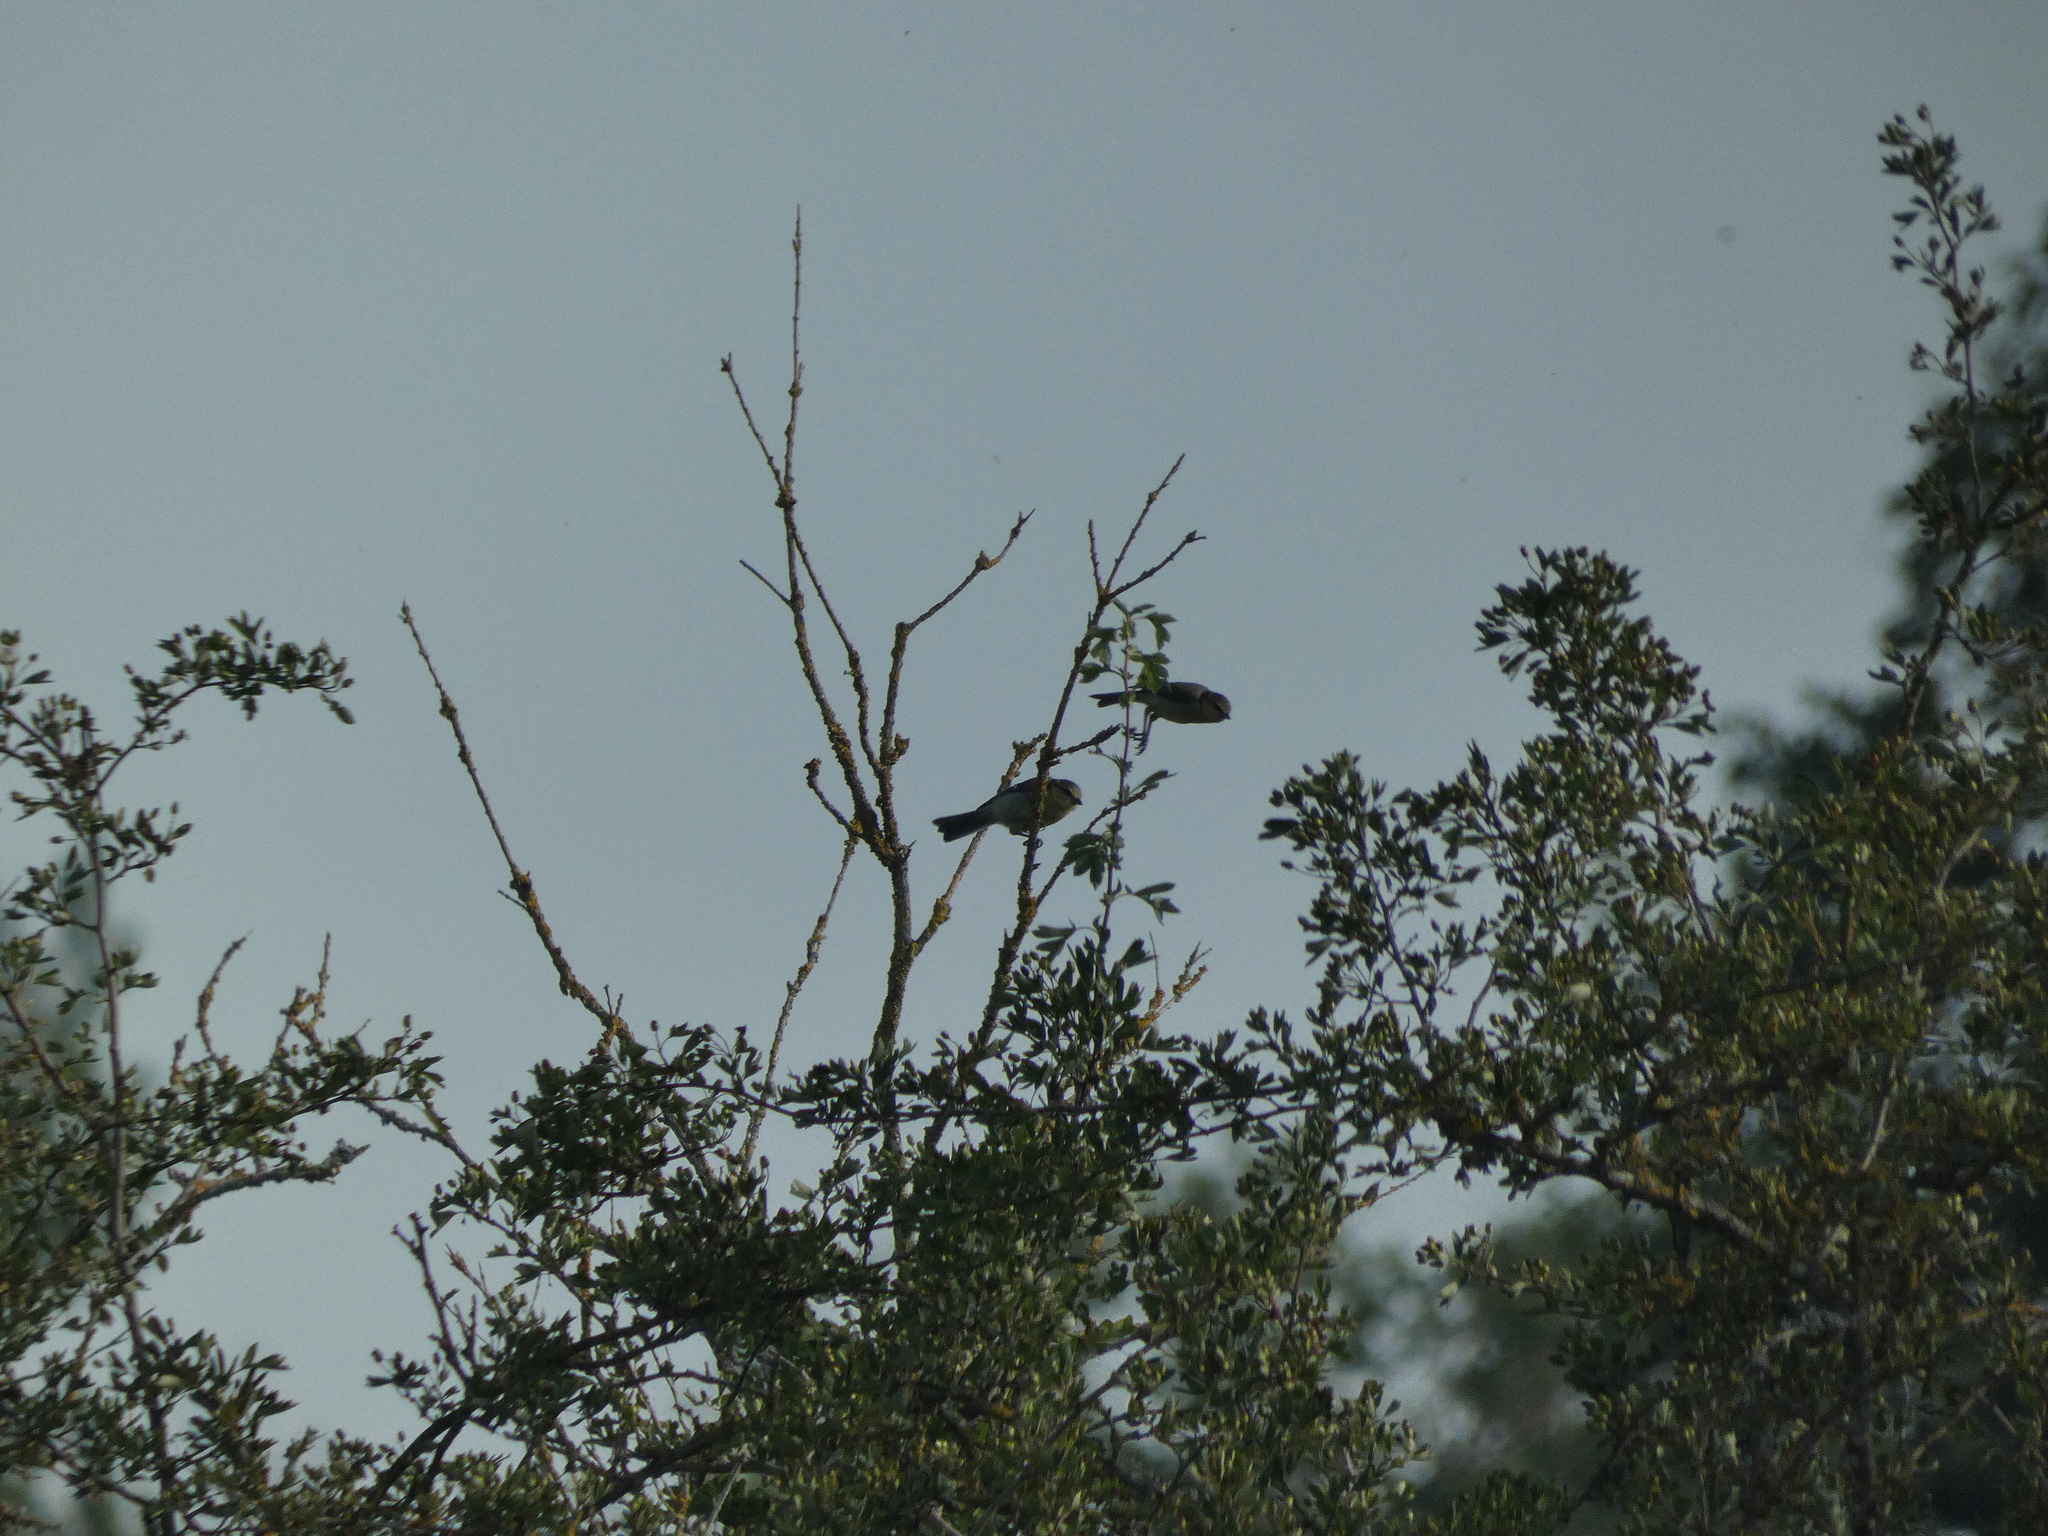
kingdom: Animalia
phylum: Chordata
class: Aves
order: Passeriformes
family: Paridae
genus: Cyanistes
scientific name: Cyanistes caeruleus
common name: Eurasian blue tit
